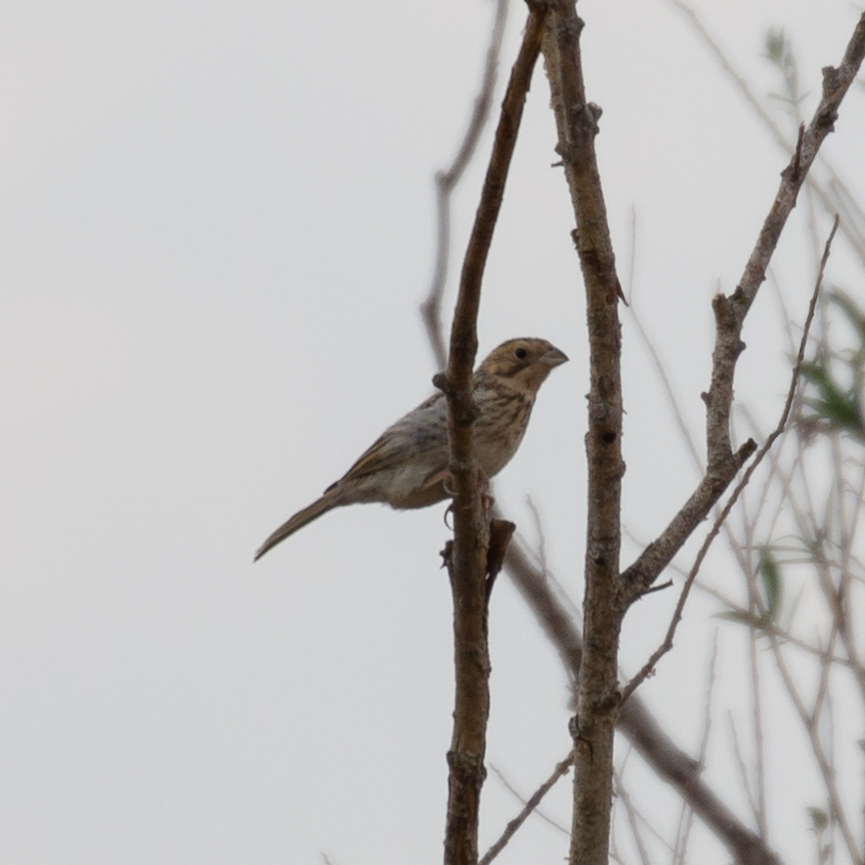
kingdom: Animalia
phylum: Chordata
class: Aves
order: Passeriformes
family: Emberizidae
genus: Emberiza
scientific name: Emberiza calandra
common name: Corn bunting
